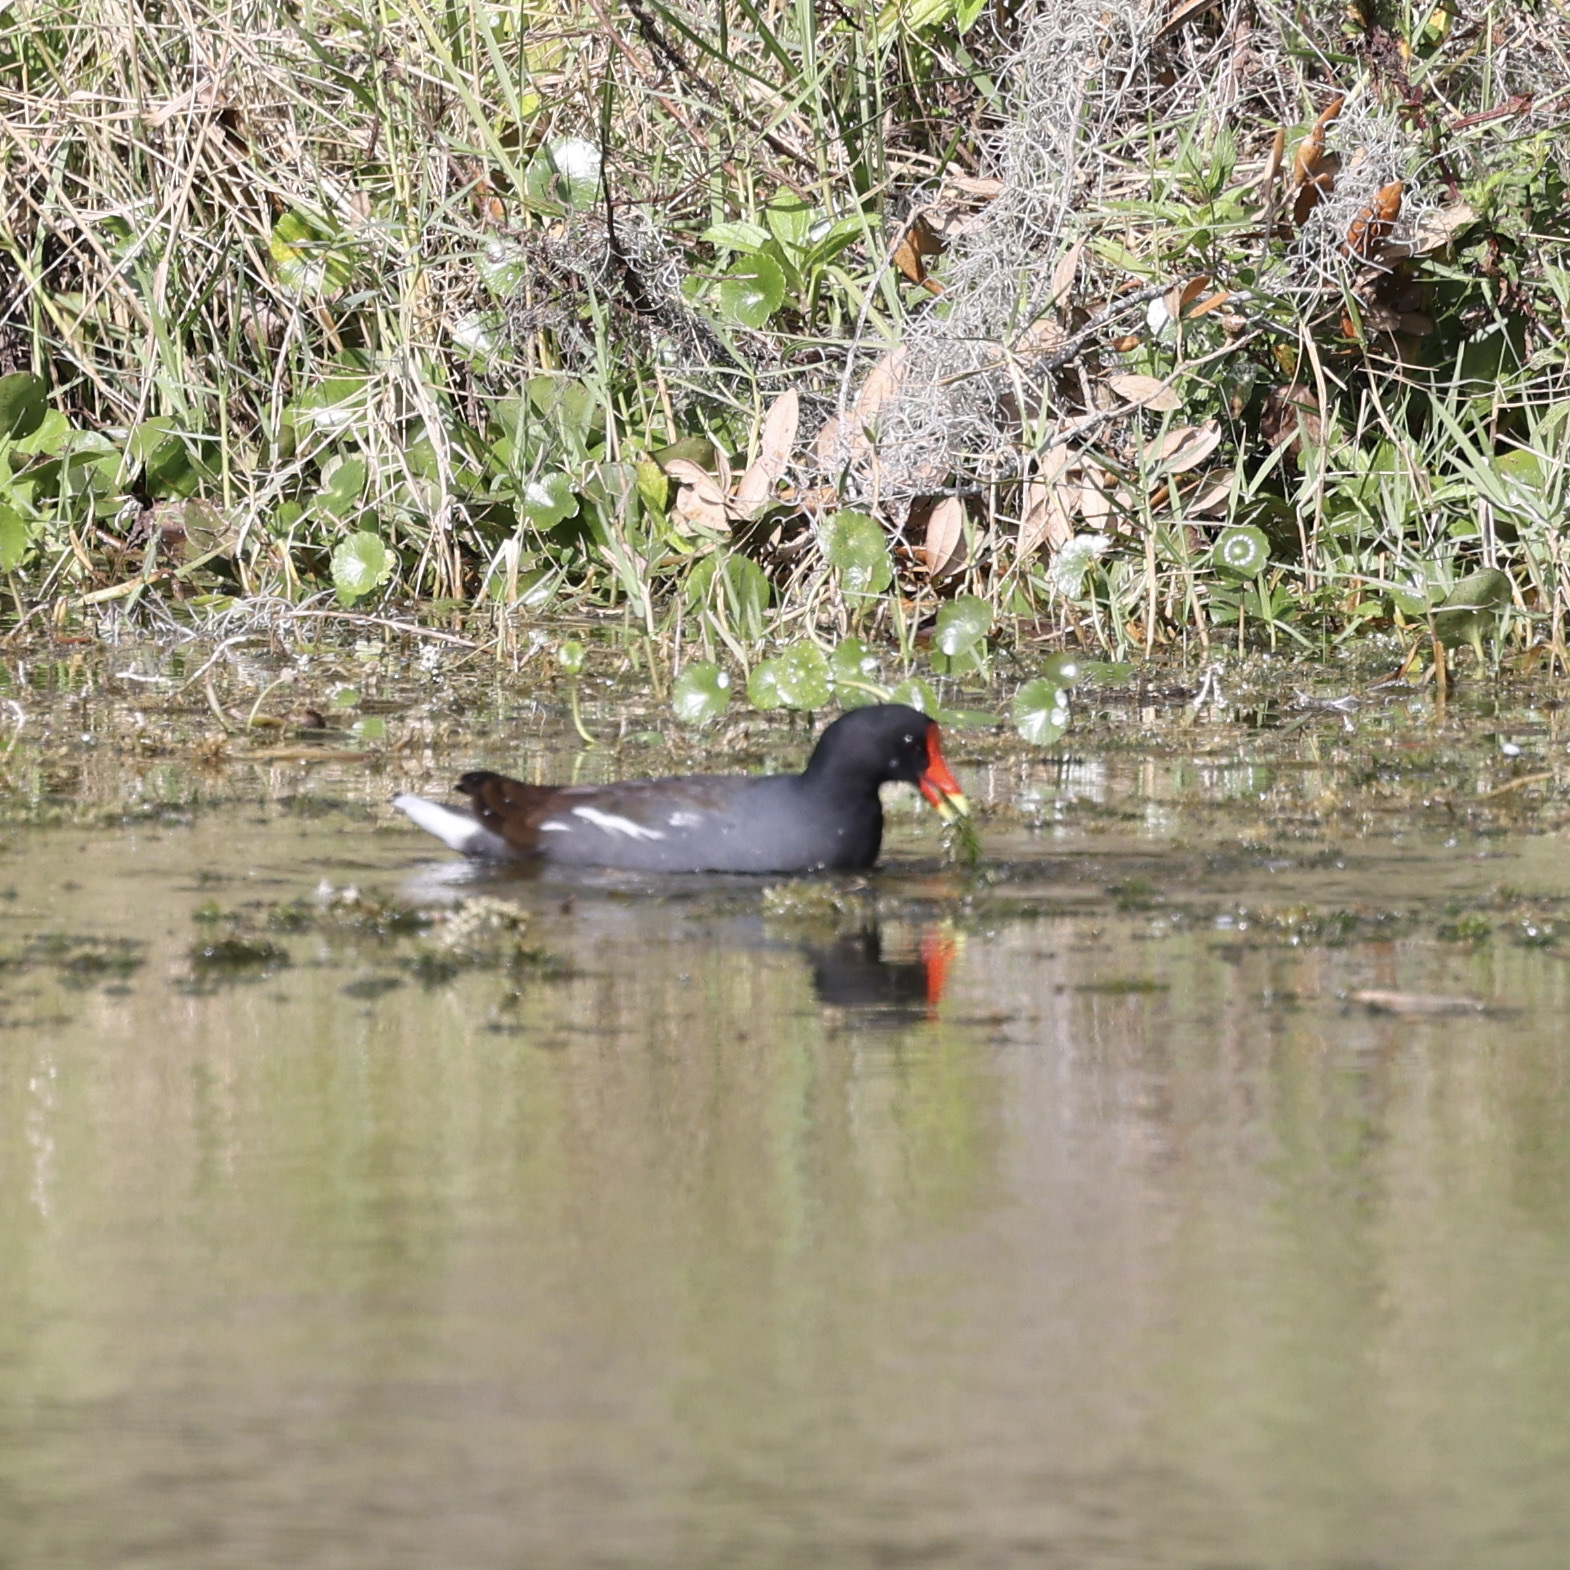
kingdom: Animalia
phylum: Chordata
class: Aves
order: Gruiformes
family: Rallidae
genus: Gallinula
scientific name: Gallinula chloropus
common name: Common moorhen
